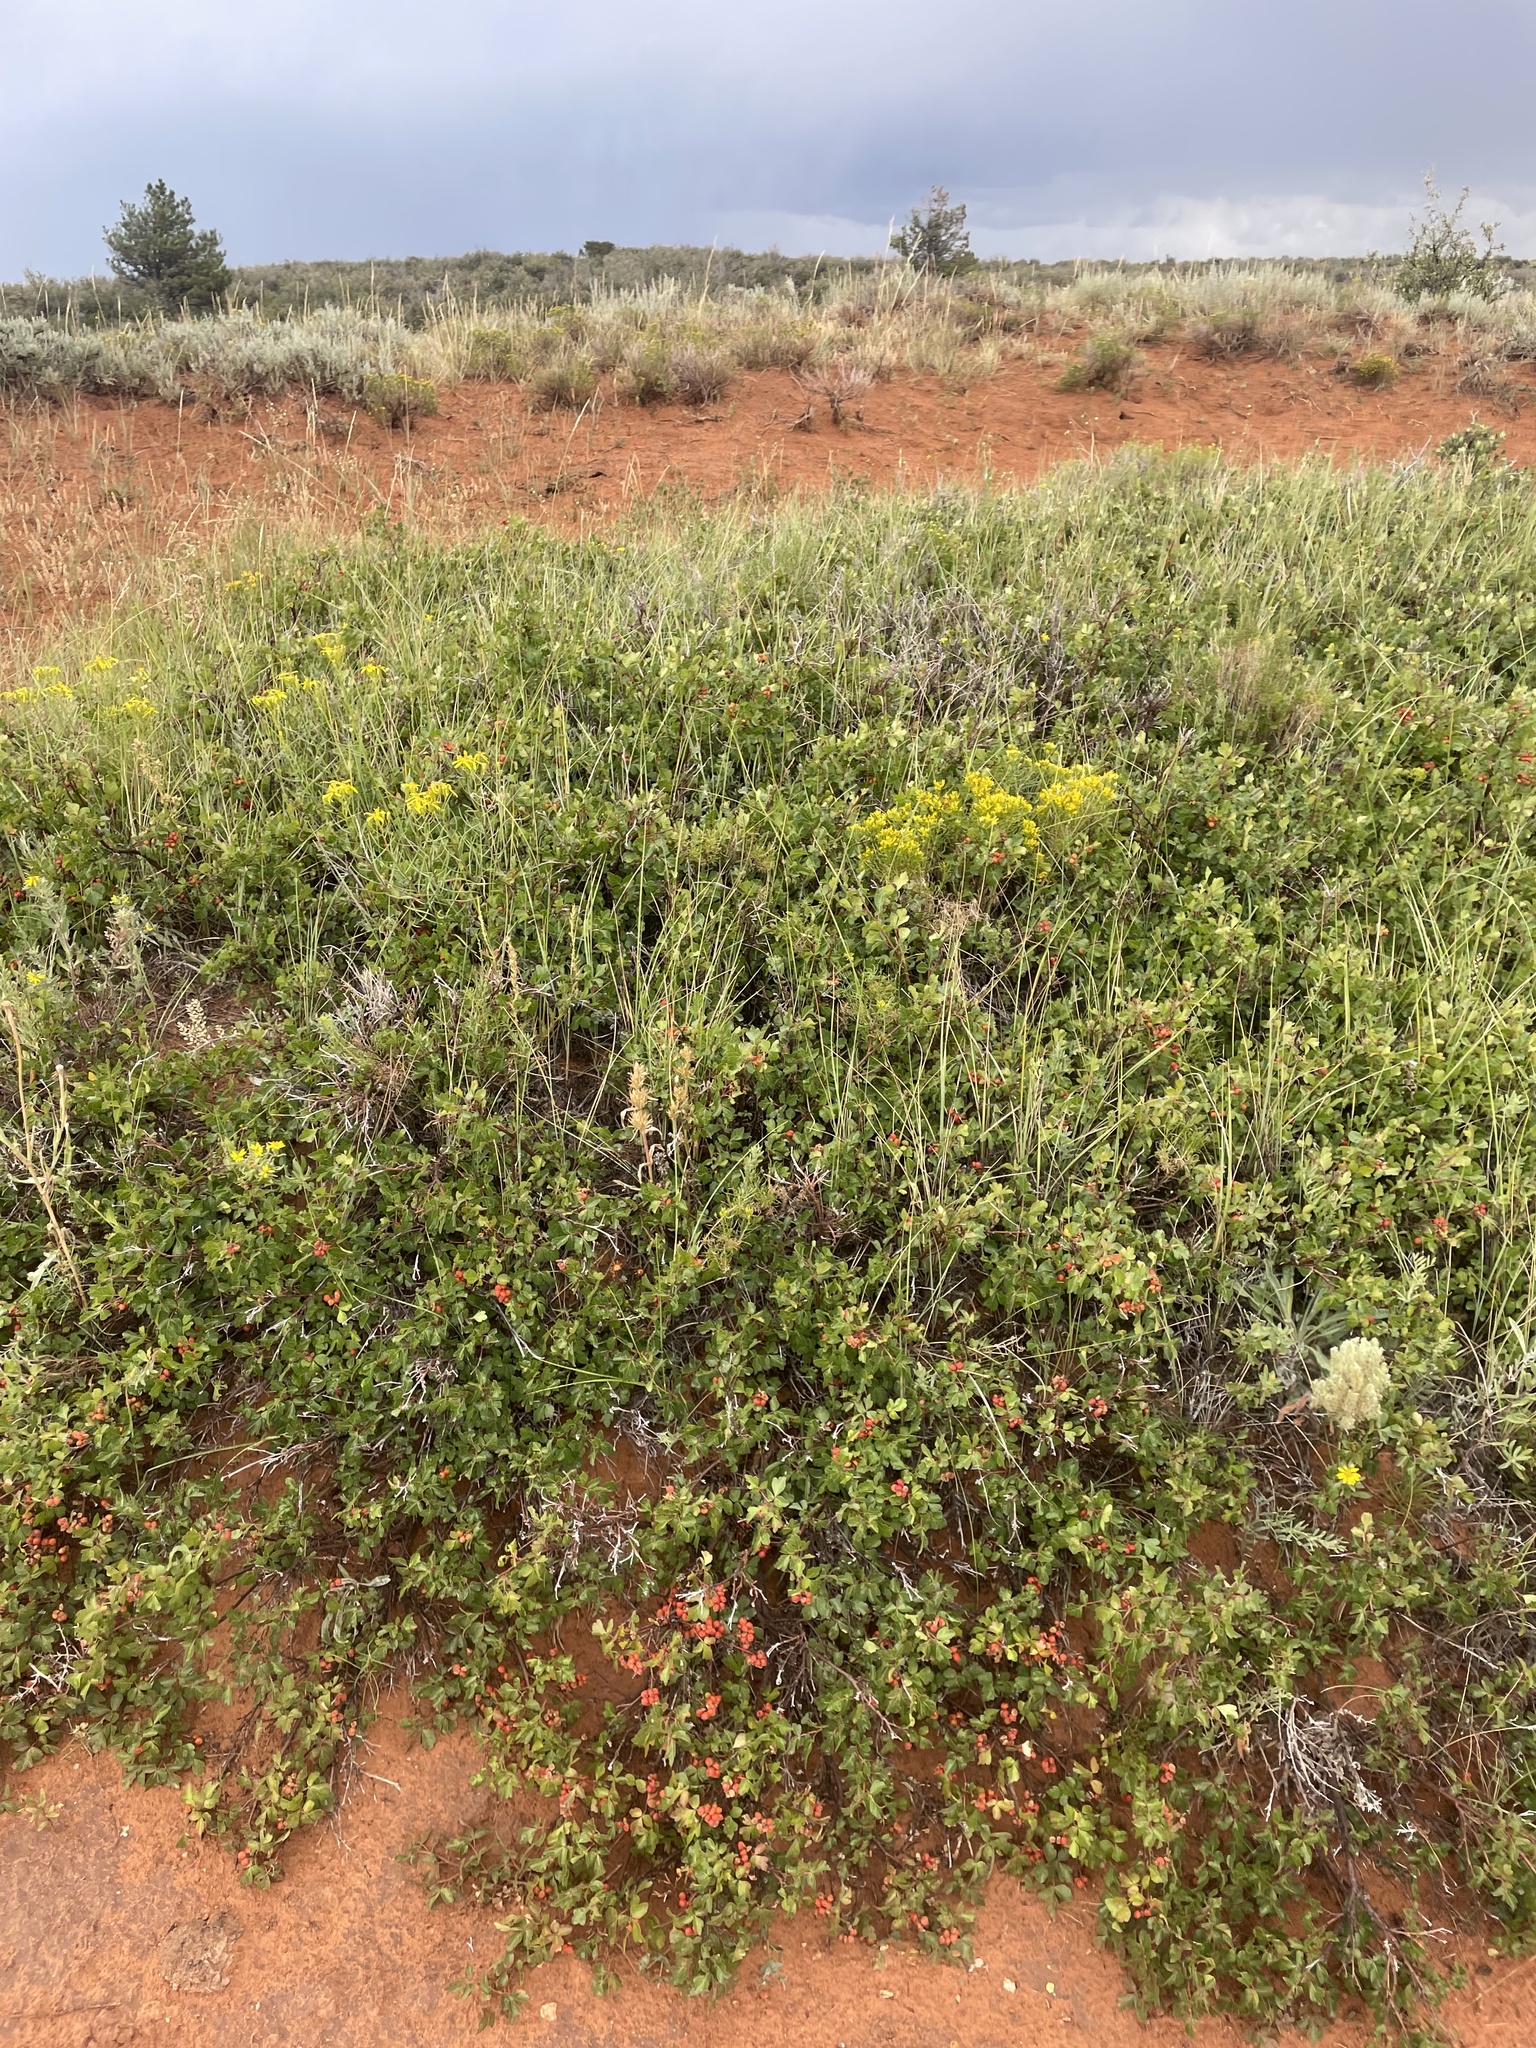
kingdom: Plantae
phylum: Tracheophyta
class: Magnoliopsida
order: Sapindales
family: Anacardiaceae
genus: Rhus
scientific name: Rhus trilobata
